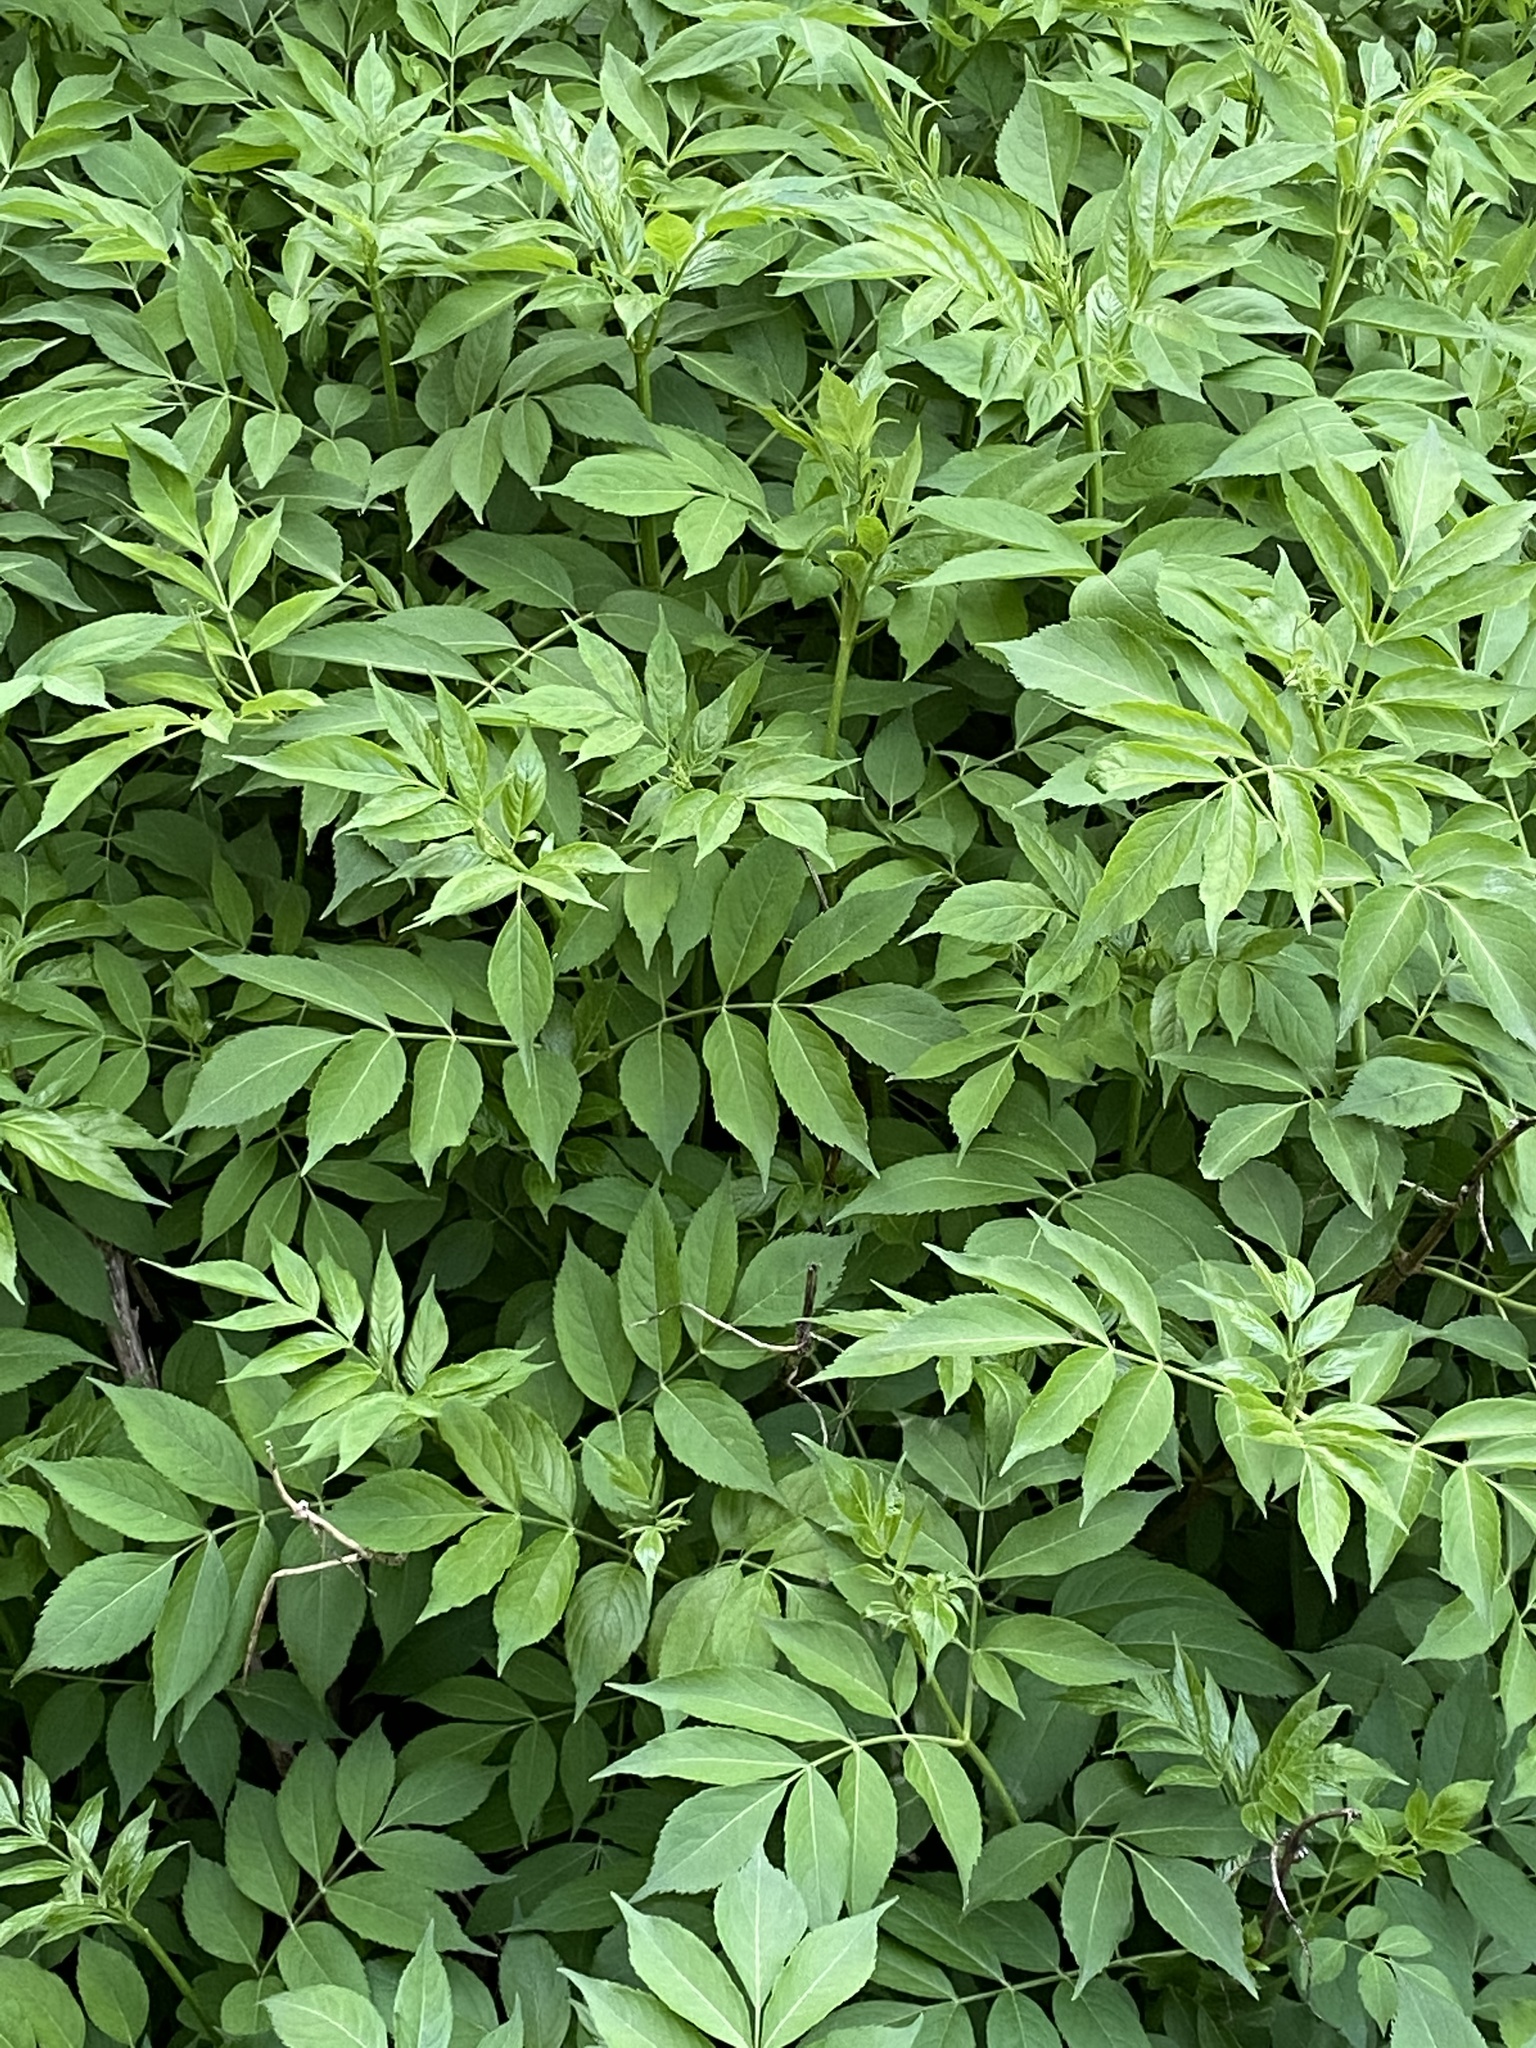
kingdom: Plantae
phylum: Tracheophyta
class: Magnoliopsida
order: Dipsacales
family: Viburnaceae
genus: Sambucus
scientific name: Sambucus canadensis
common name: American elder
